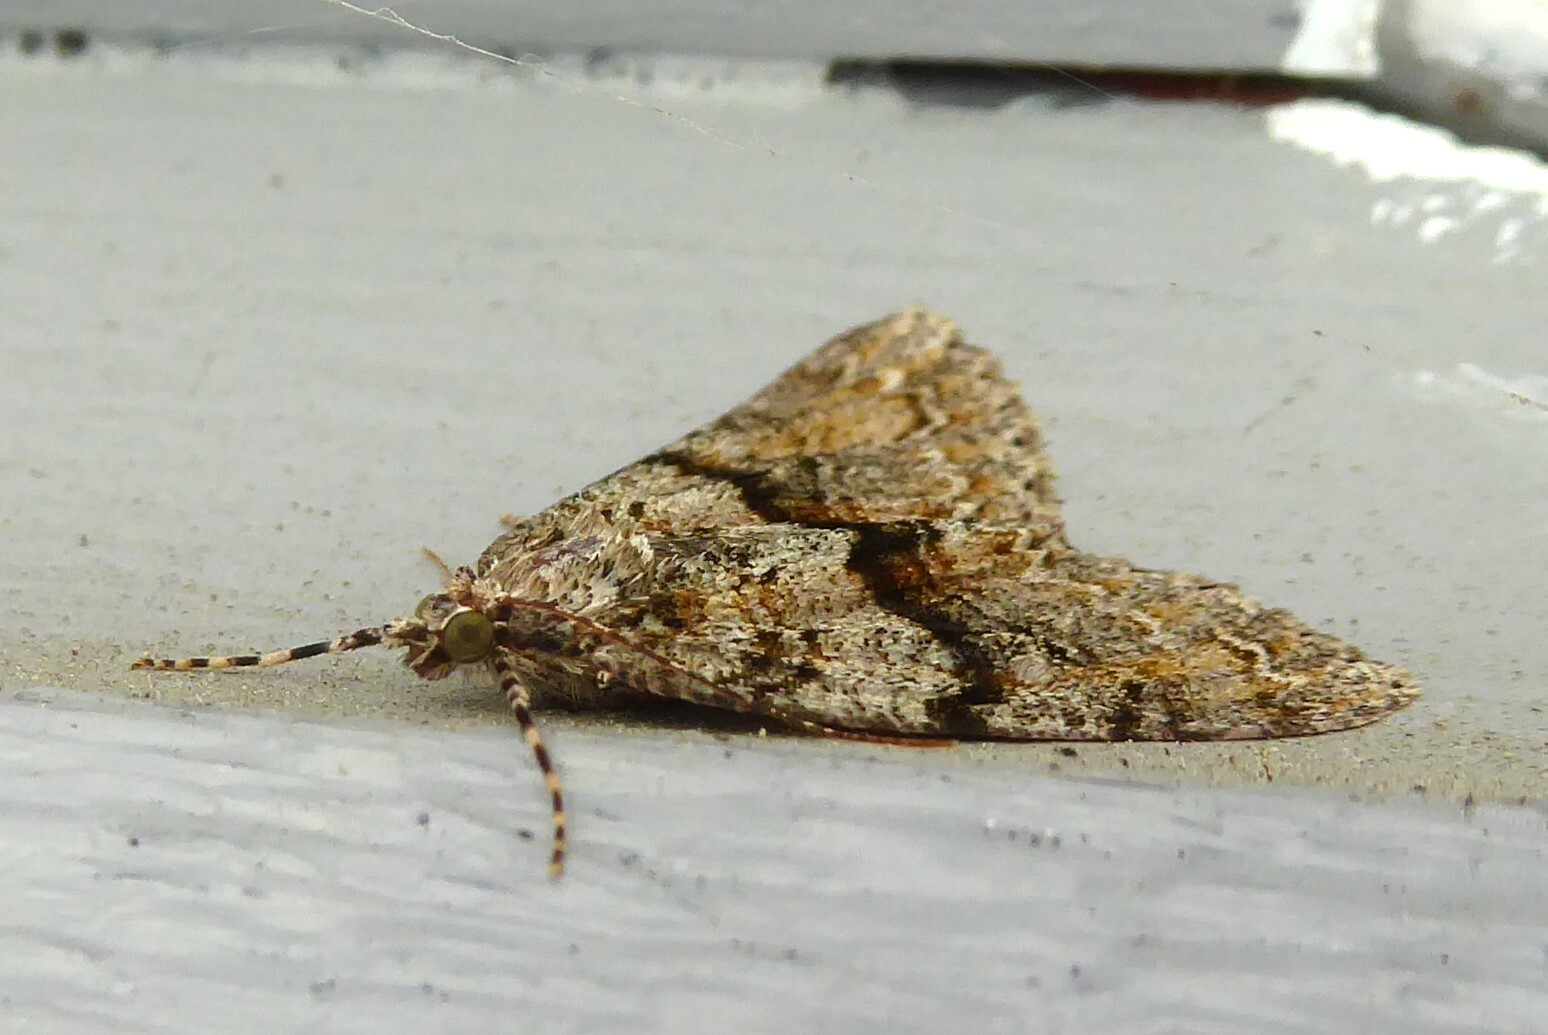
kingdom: Animalia
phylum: Arthropoda
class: Insecta
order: Lepidoptera
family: Geometridae
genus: Pseudocoremia
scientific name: Pseudocoremia suavis
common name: Common forest looper
